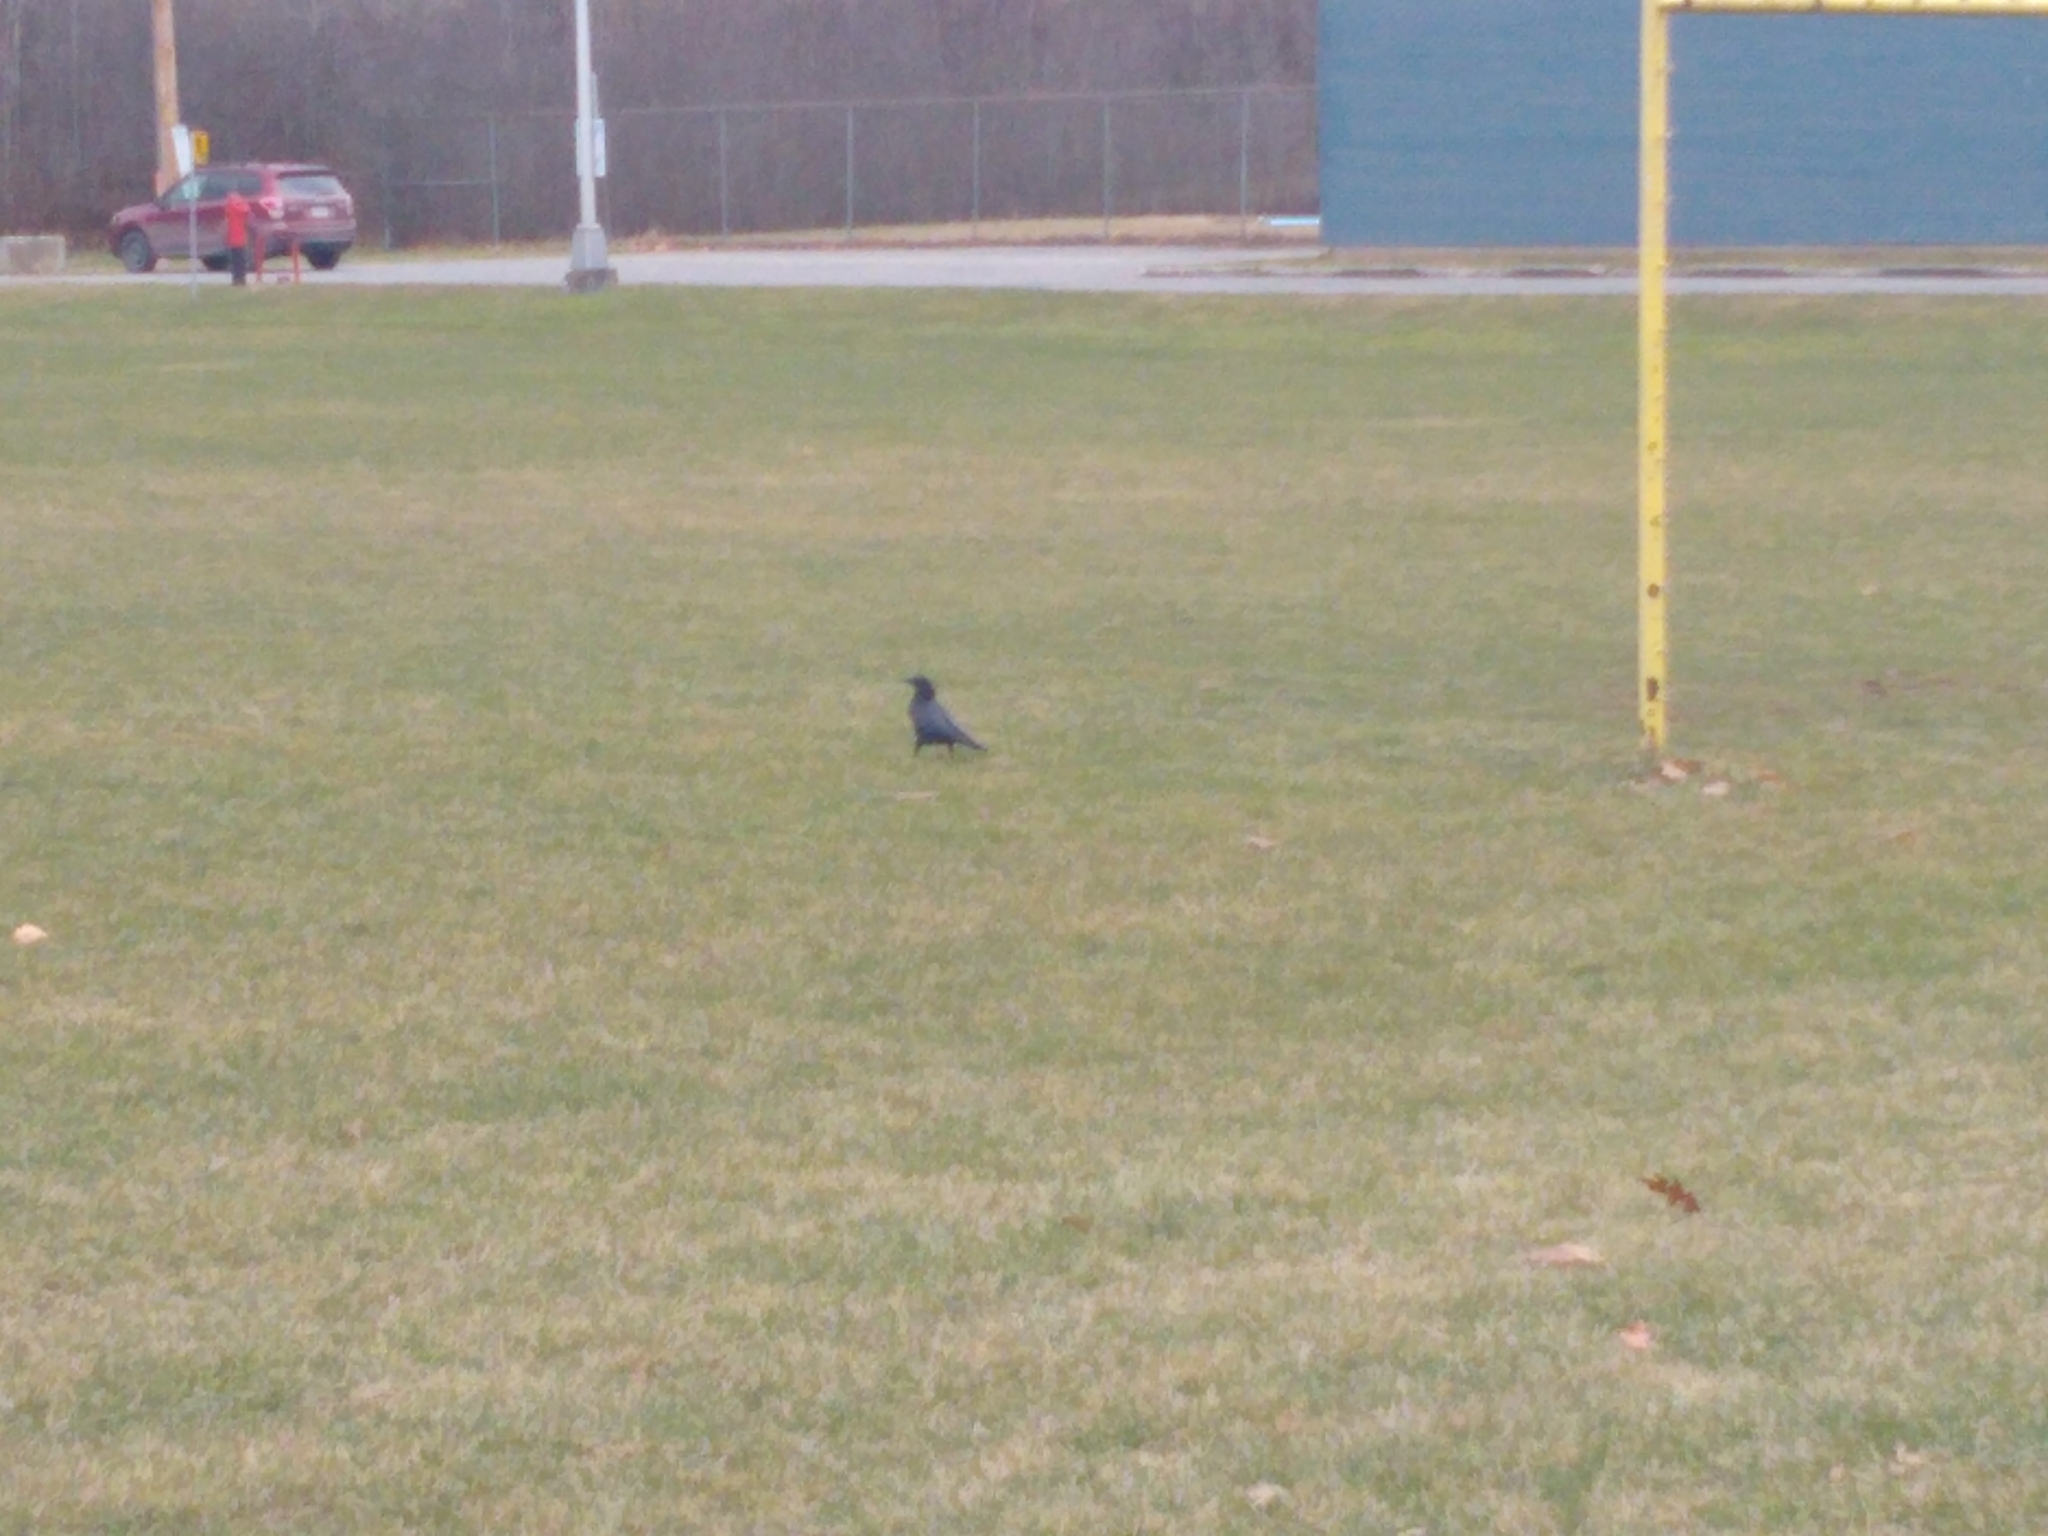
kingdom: Animalia
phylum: Chordata
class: Aves
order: Passeriformes
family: Corvidae
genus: Corvus
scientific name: Corvus brachyrhynchos
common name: American crow
